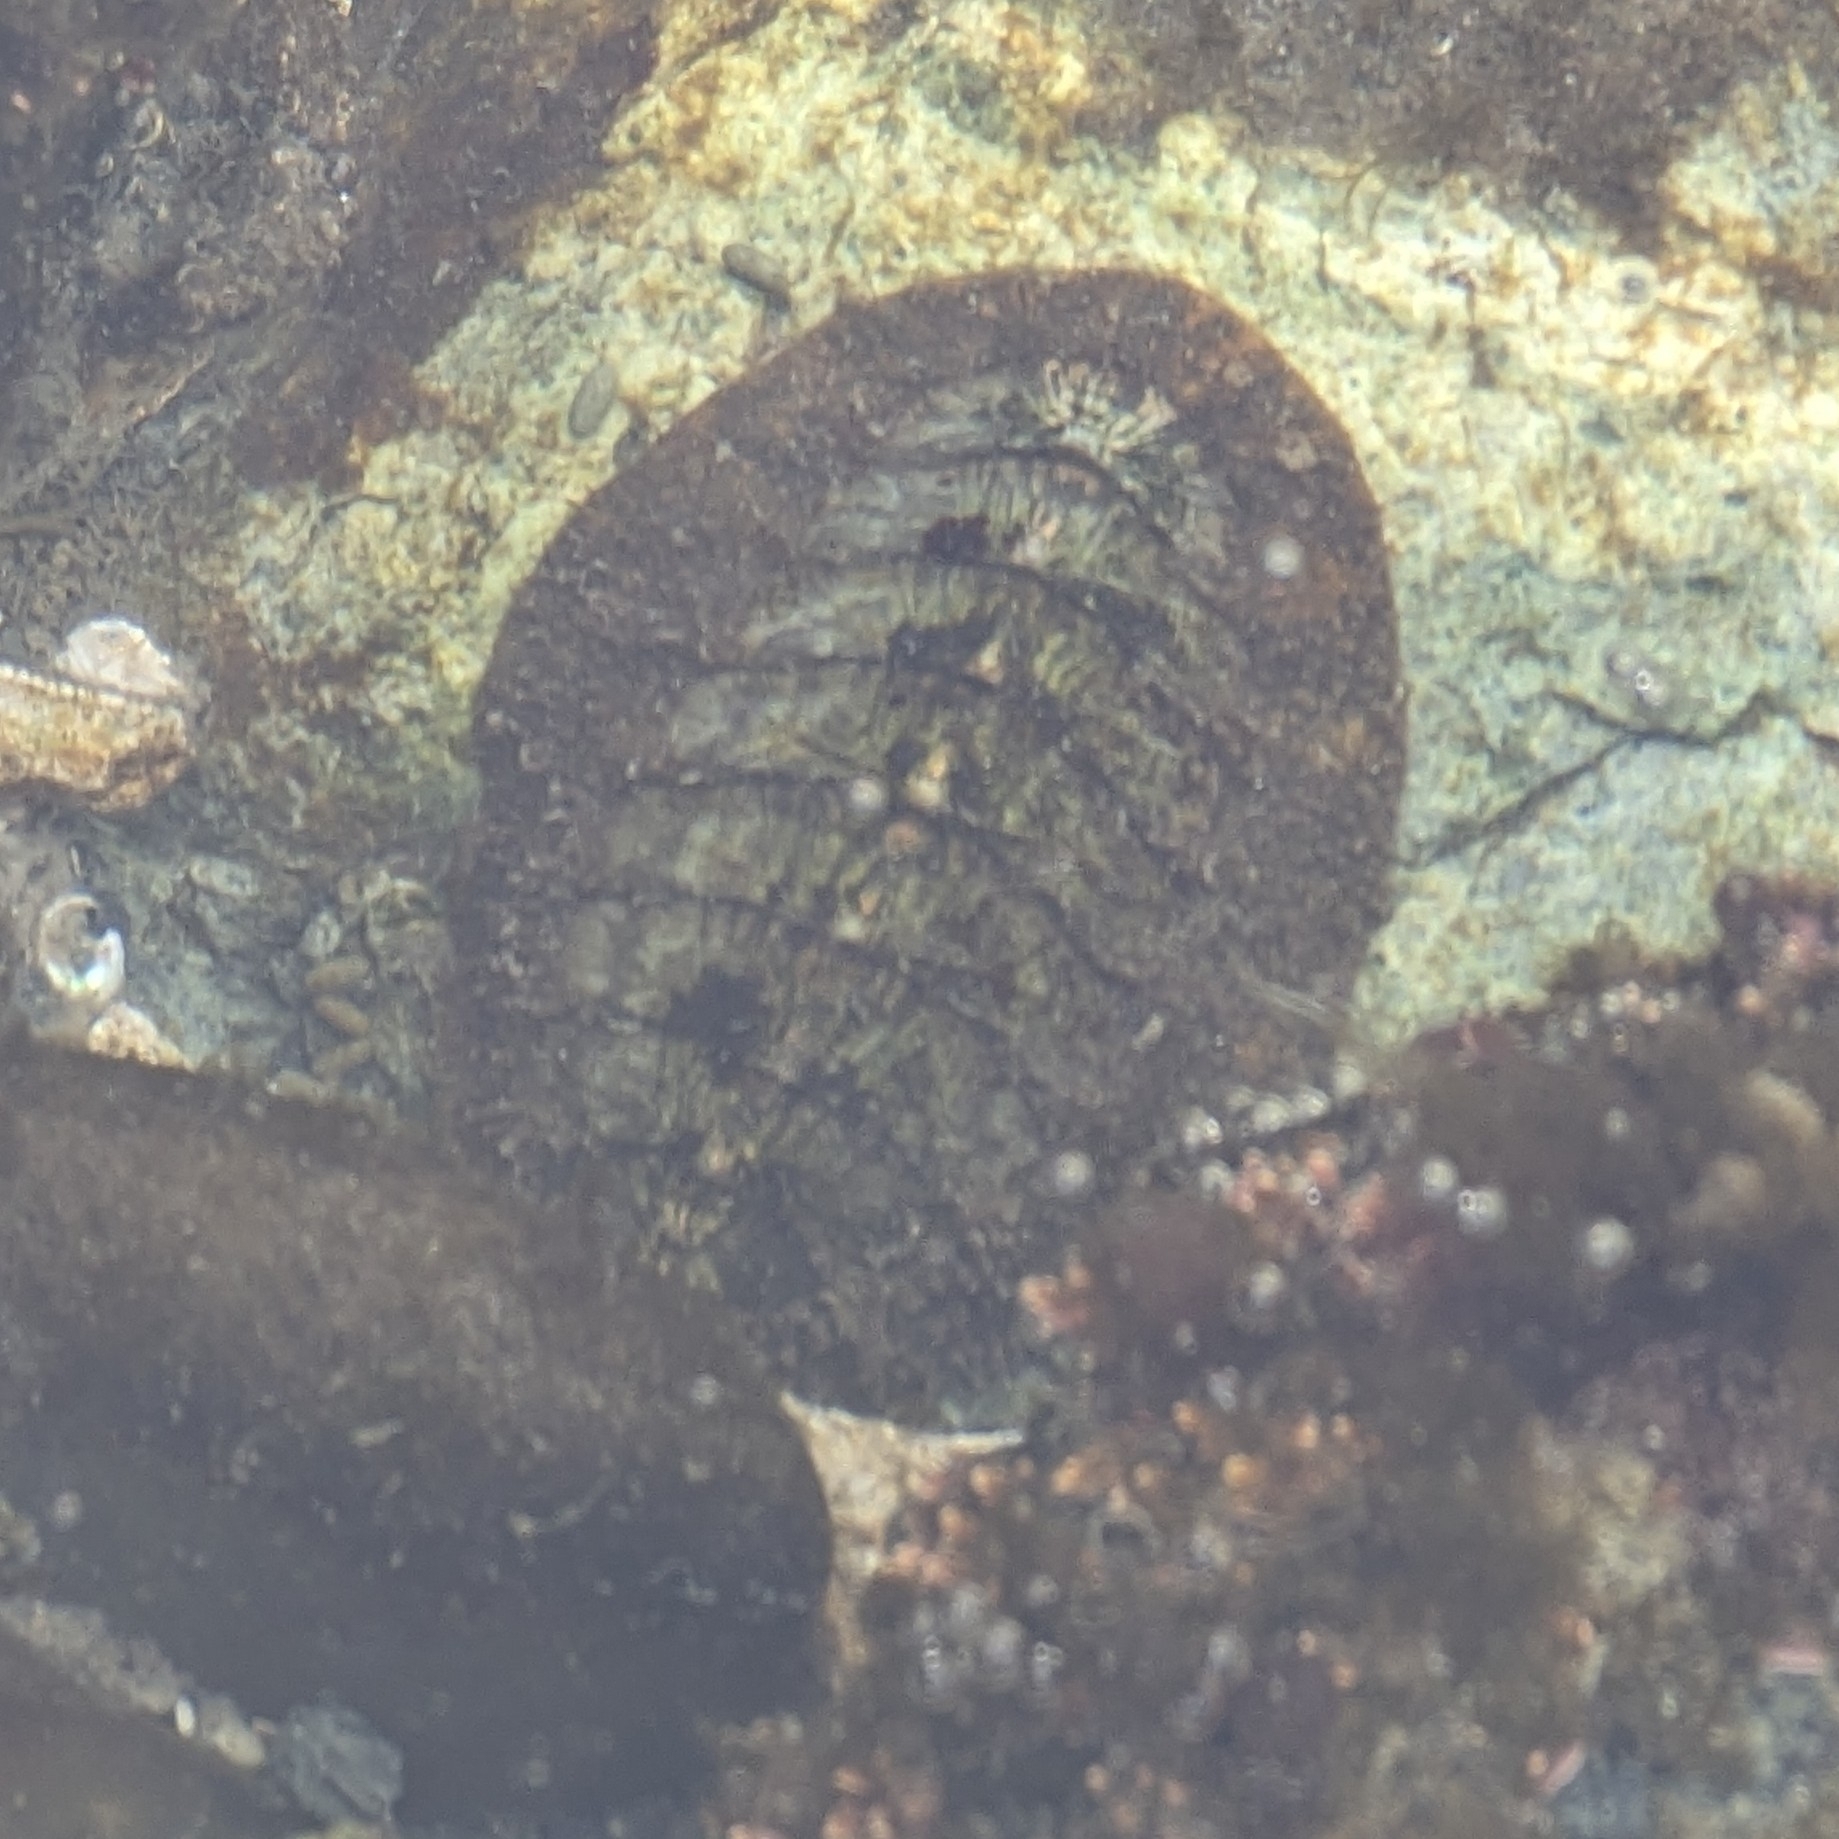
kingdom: Animalia
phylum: Mollusca
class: Polyplacophora
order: Chitonida
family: Mopaliidae
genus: Mopalia
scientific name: Mopalia lignosa
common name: Woody chiton
